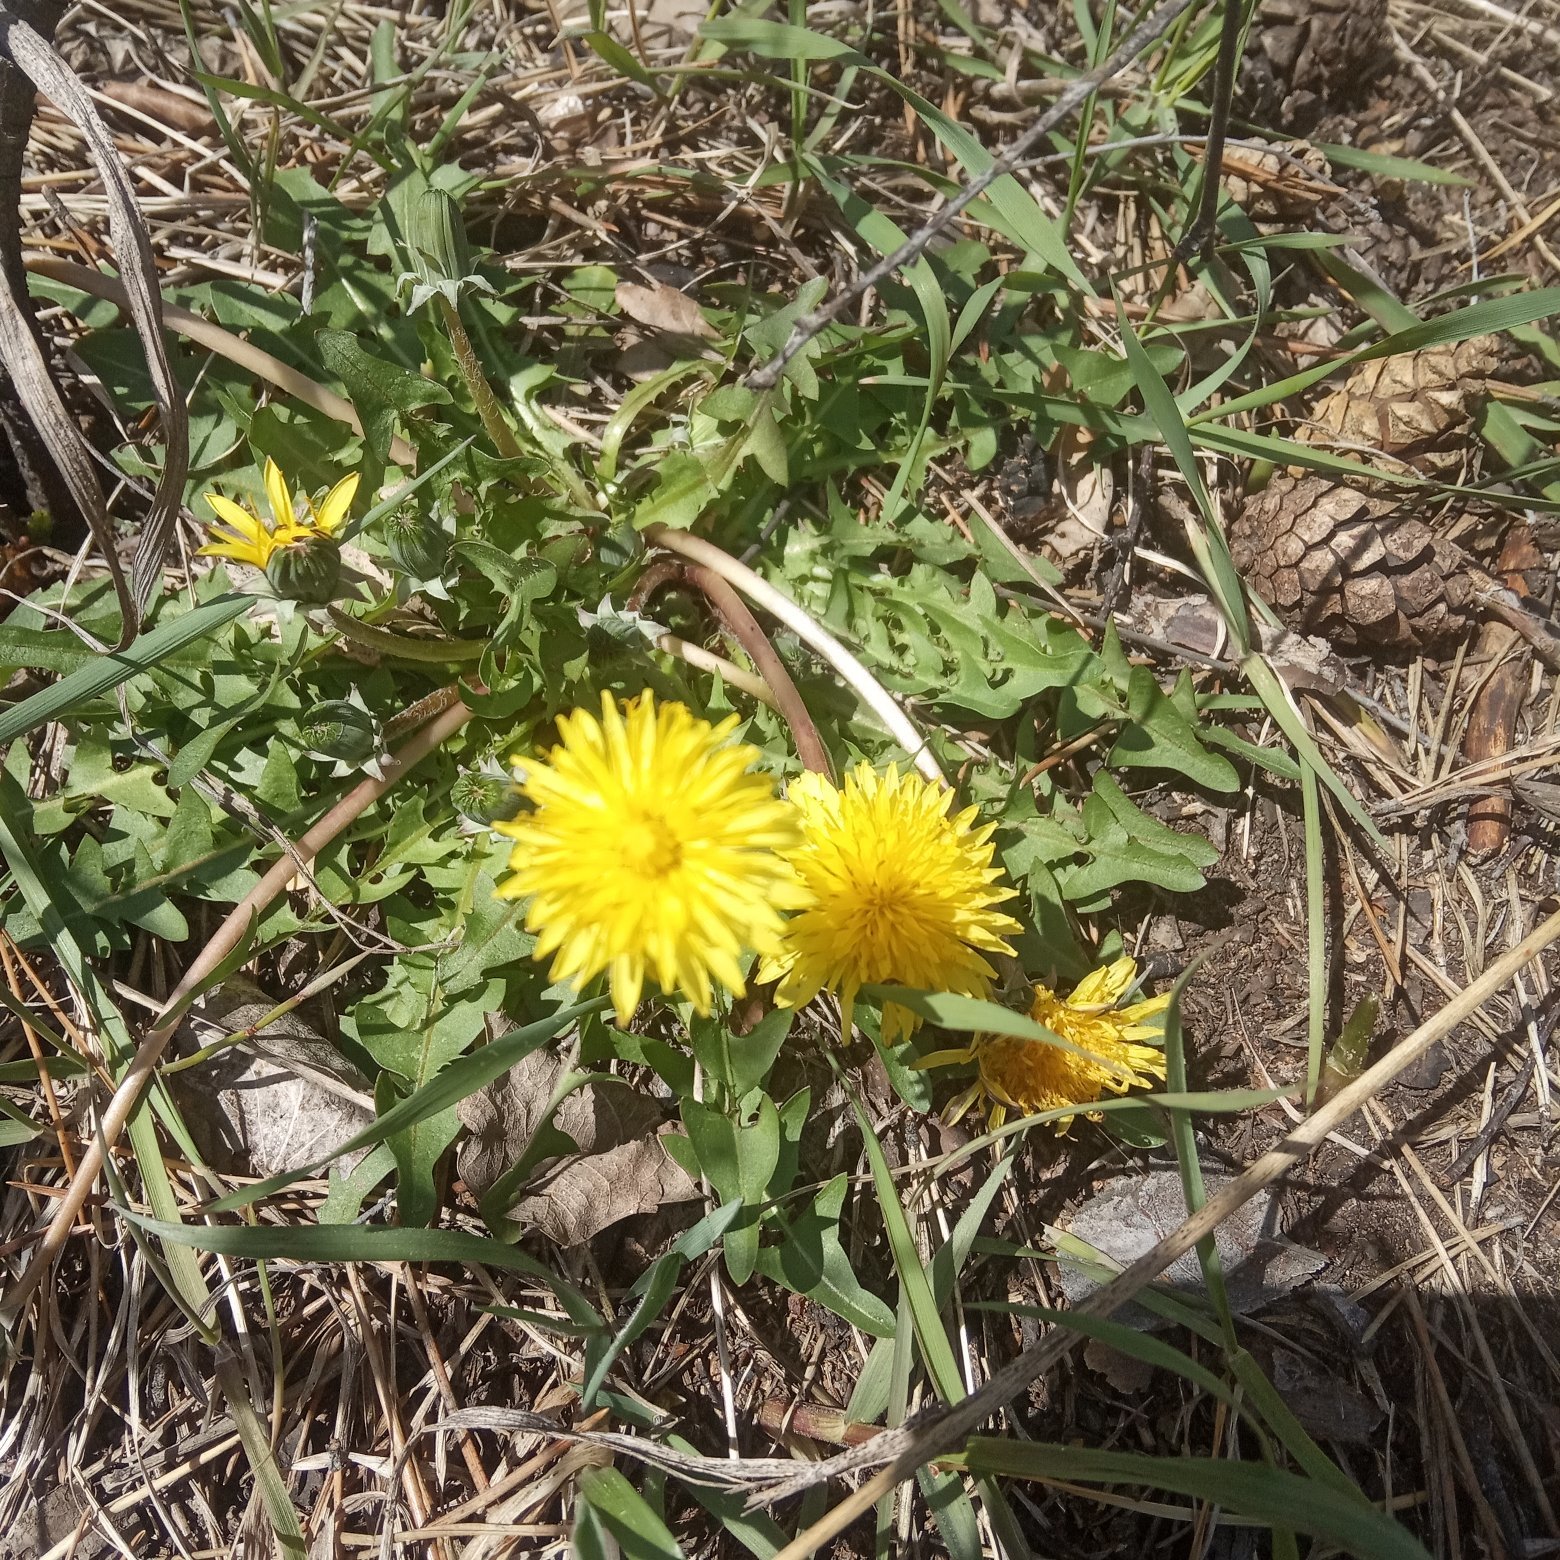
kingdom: Plantae
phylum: Tracheophyta
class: Magnoliopsida
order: Asterales
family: Asteraceae
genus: Taraxacum
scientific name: Taraxacum officinale
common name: Common dandelion
